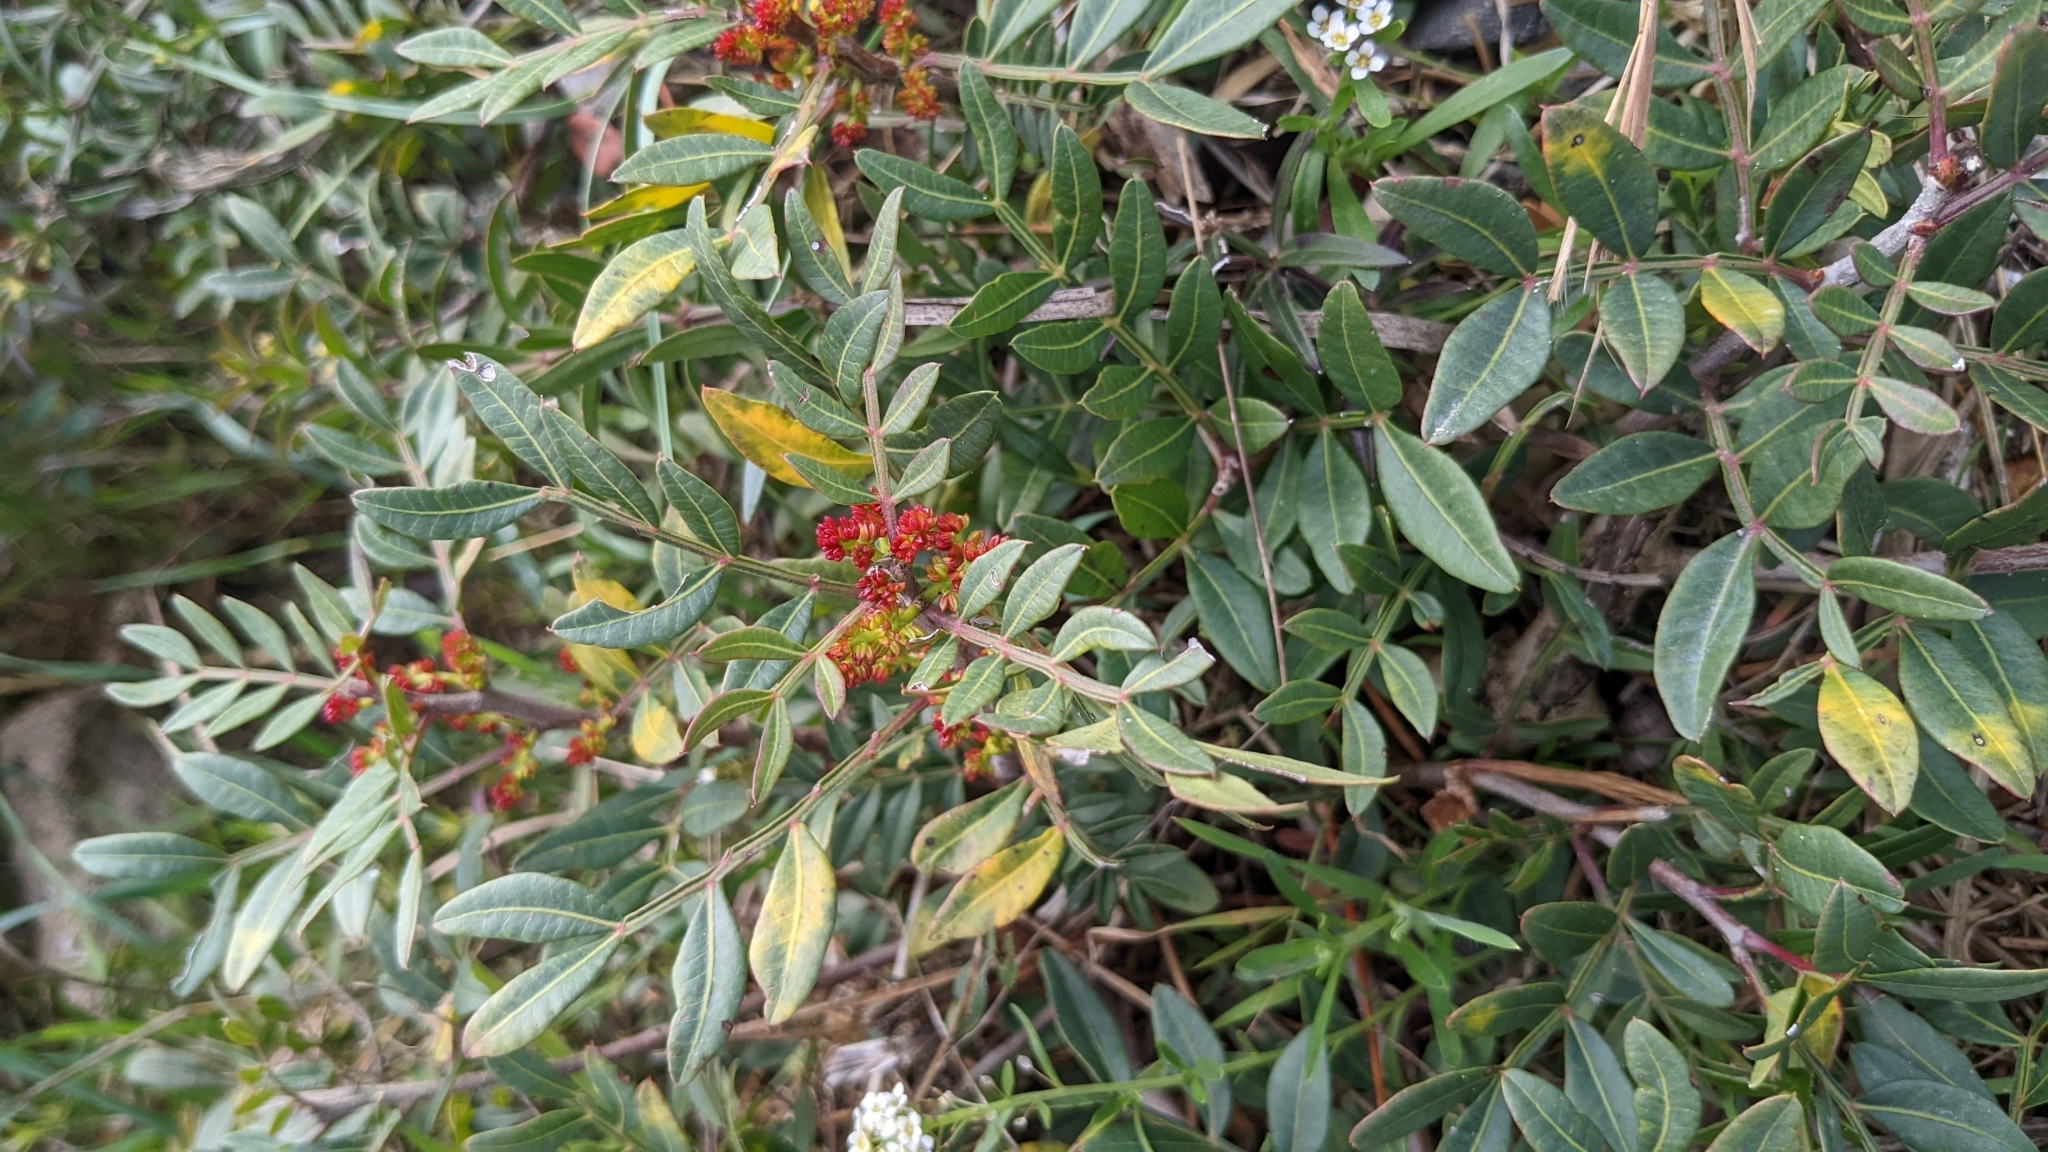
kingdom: Plantae
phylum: Tracheophyta
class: Magnoliopsida
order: Sapindales
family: Anacardiaceae
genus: Pistacia
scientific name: Pistacia lentiscus
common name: Lentisk
